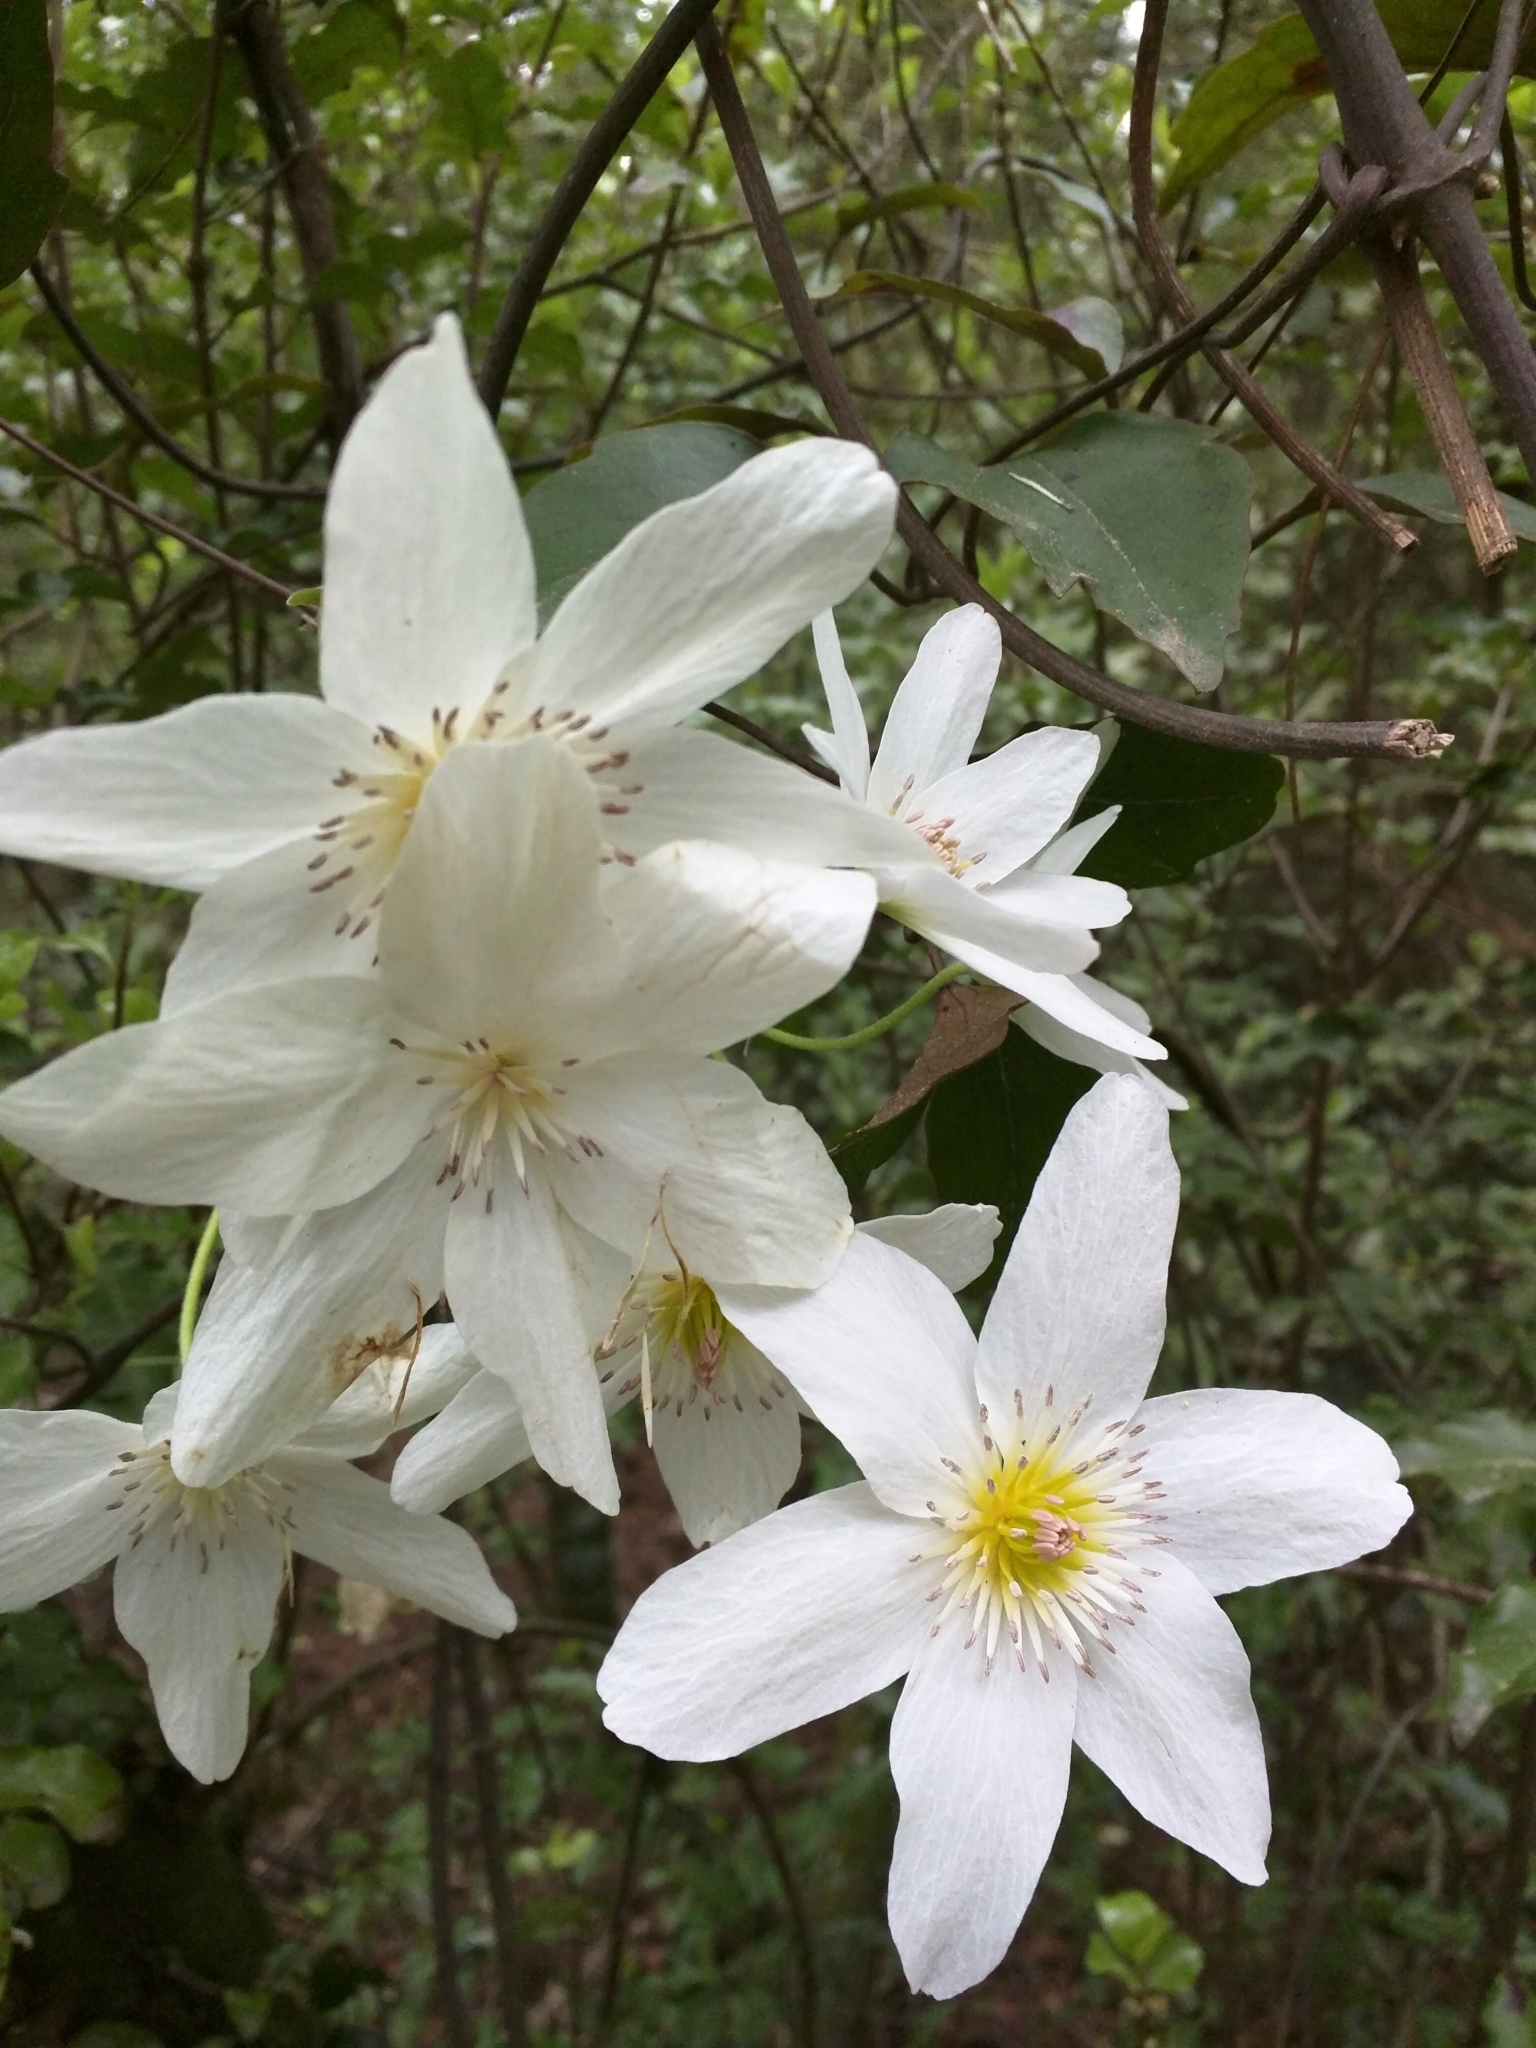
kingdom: Plantae
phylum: Tracheophyta
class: Magnoliopsida
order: Ranunculales
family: Ranunculaceae
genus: Clematis
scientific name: Clematis paniculata
